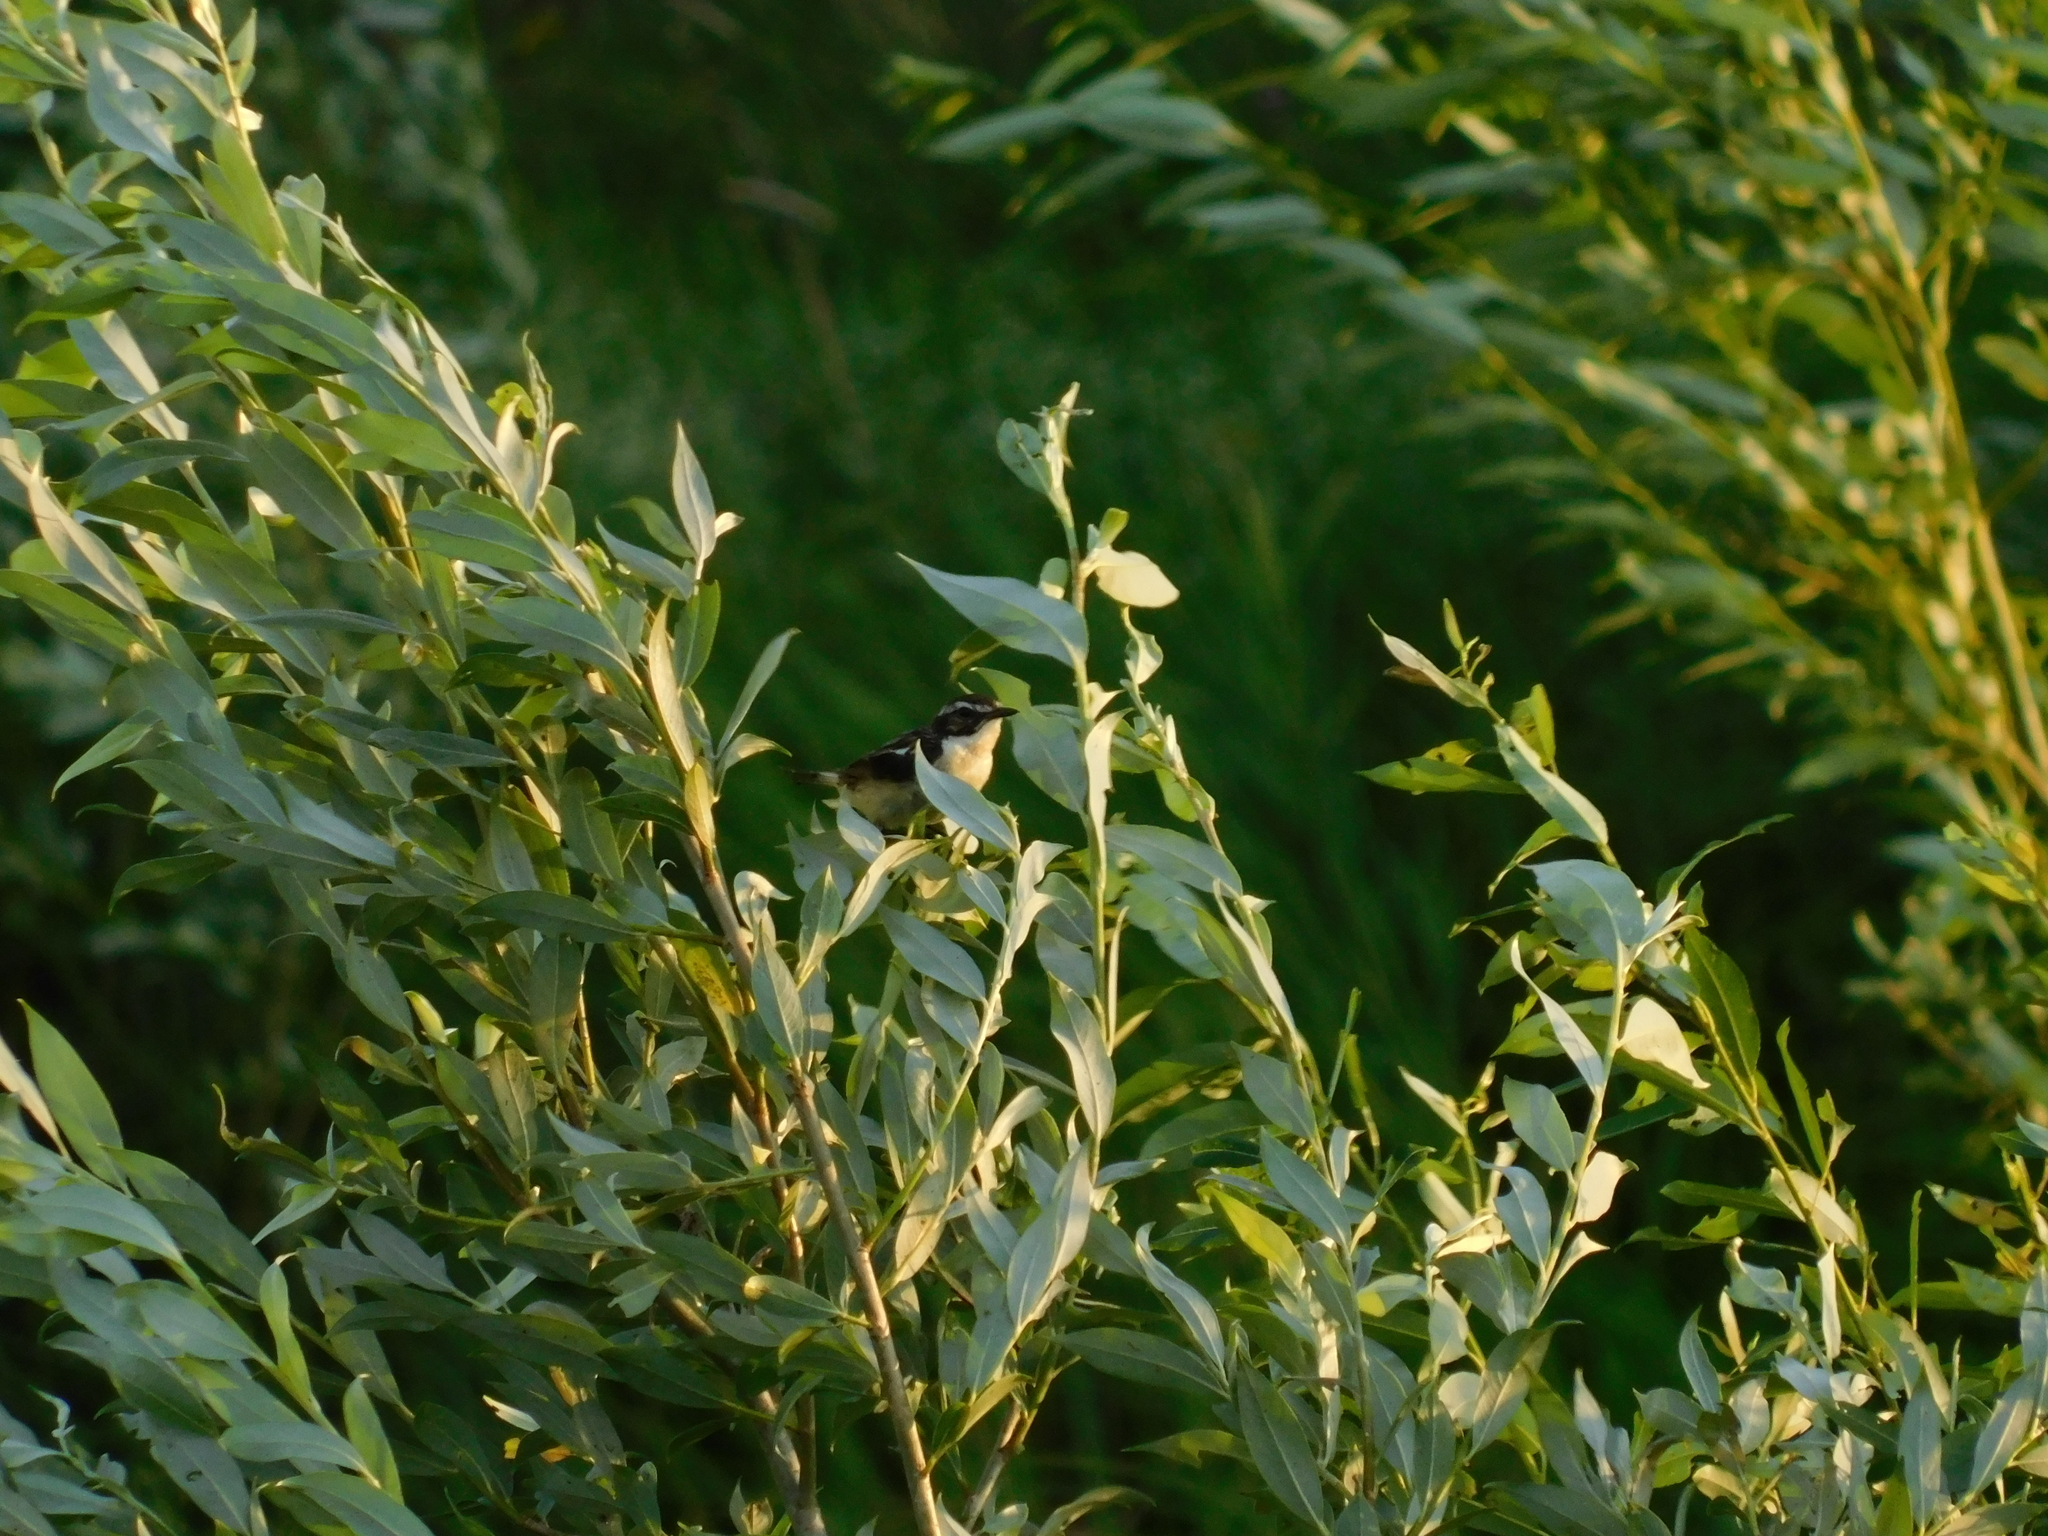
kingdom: Animalia
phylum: Chordata
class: Aves
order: Passeriformes
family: Muscicapidae
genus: Saxicola
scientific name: Saxicola rubetra
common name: Whinchat
